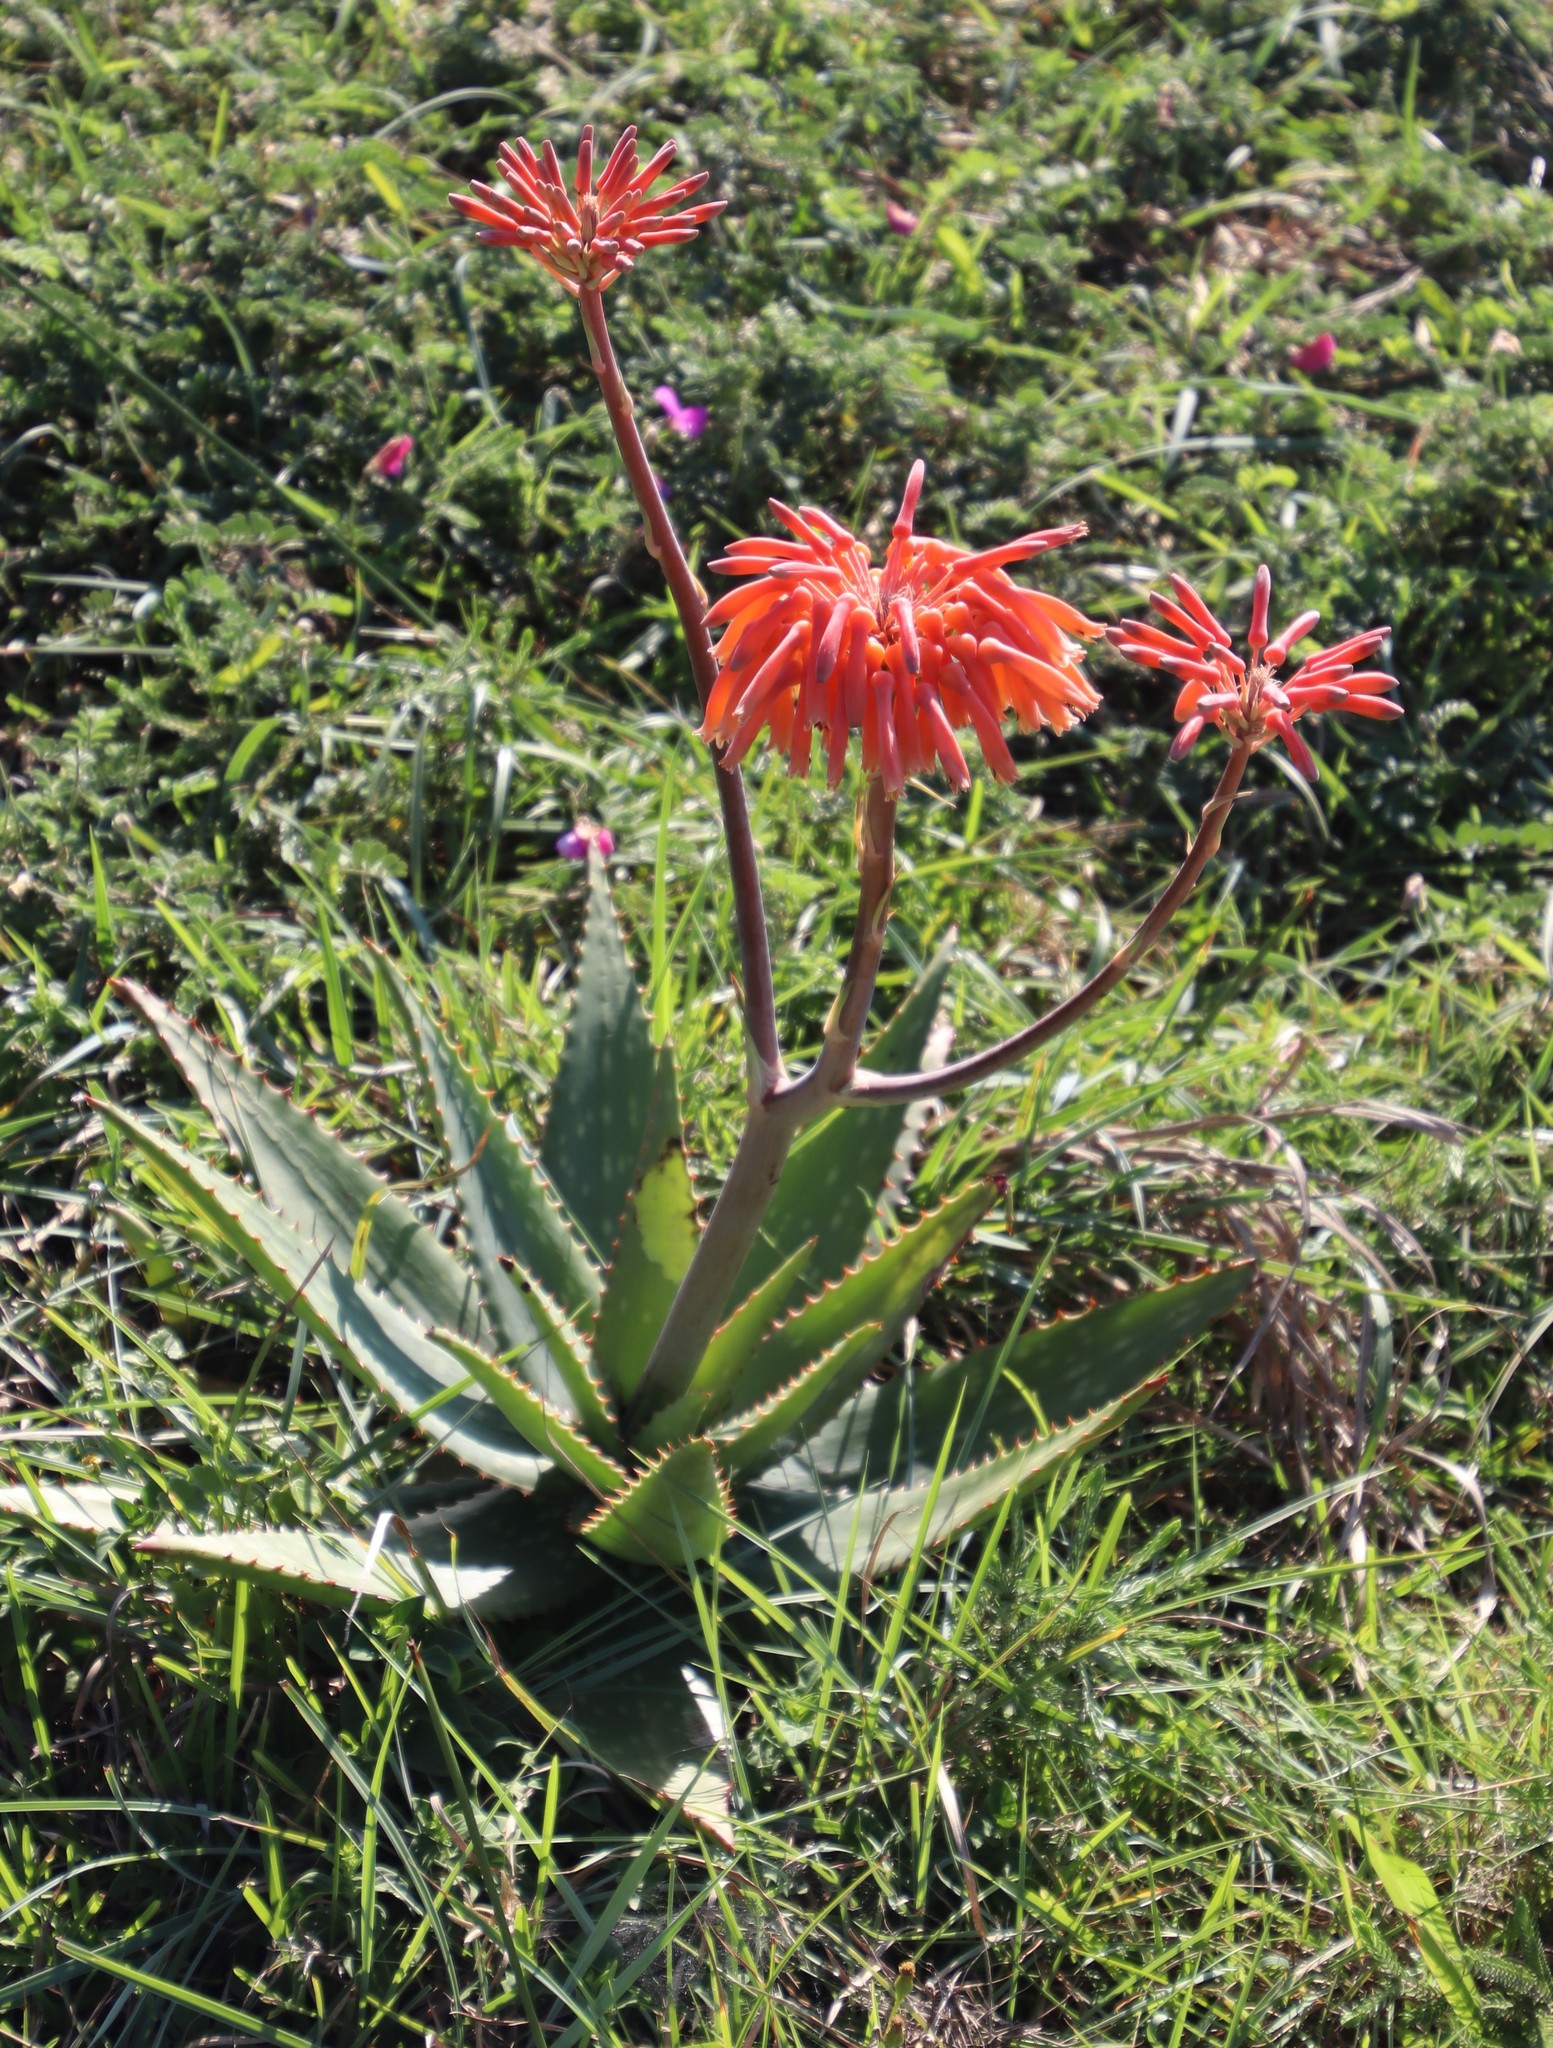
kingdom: Plantae
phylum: Tracheophyta
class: Liliopsida
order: Asparagales
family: Asphodelaceae
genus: Aloe
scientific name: Aloe maculata
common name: Broadleaf aloe
